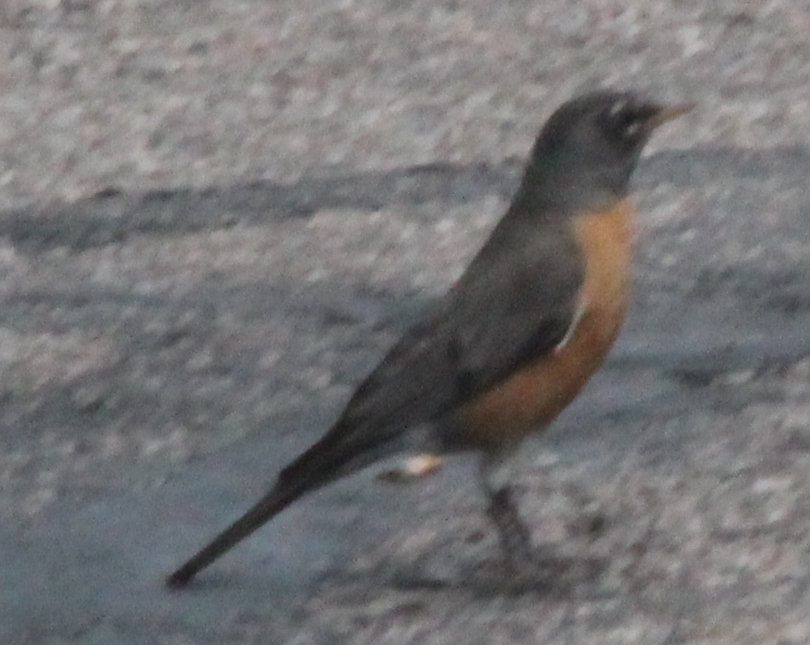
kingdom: Animalia
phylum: Chordata
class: Aves
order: Passeriformes
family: Turdidae
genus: Turdus
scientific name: Turdus migratorius
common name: American robin
